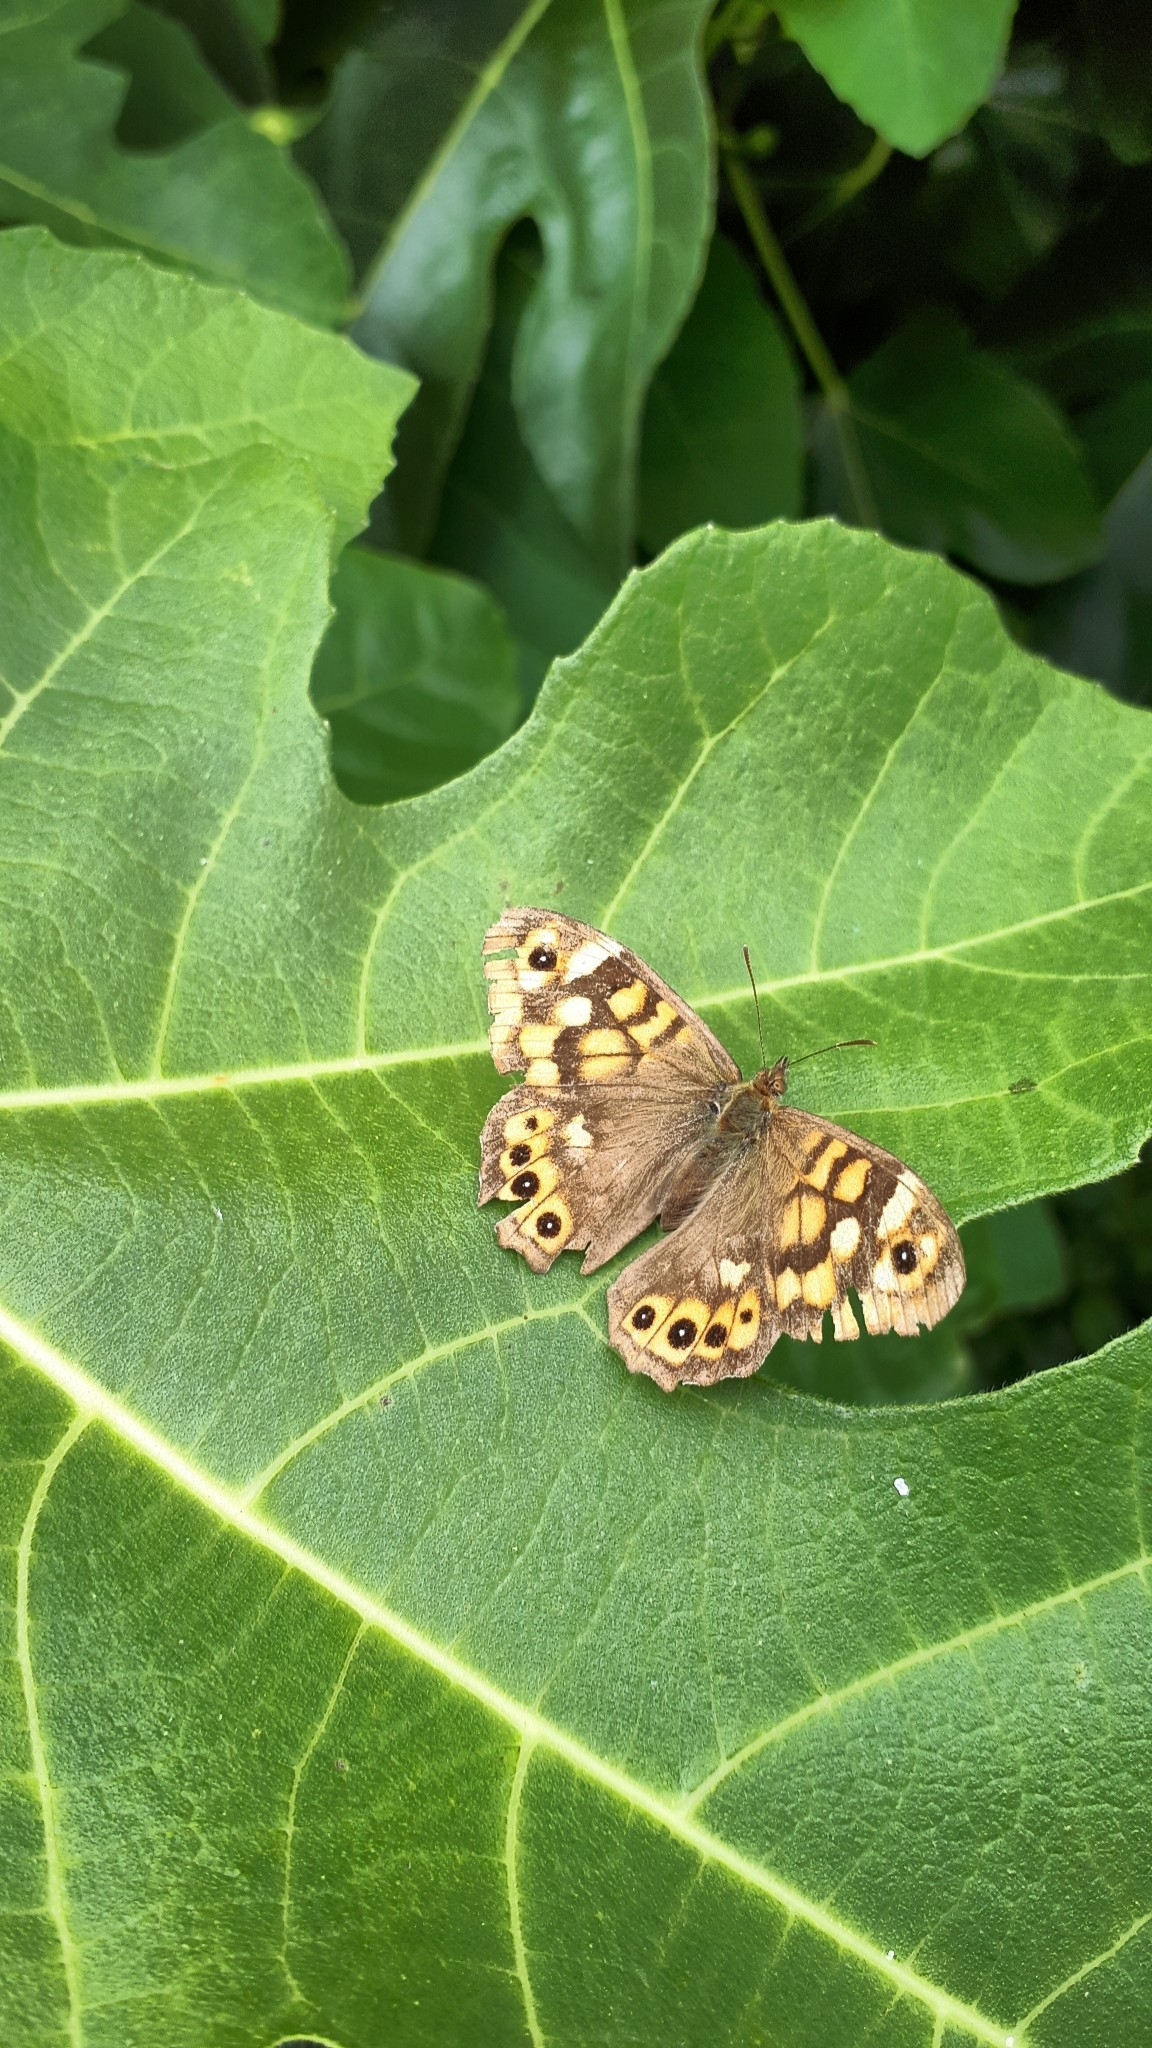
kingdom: Animalia
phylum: Arthropoda
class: Insecta
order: Lepidoptera
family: Nymphalidae
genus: Pararge
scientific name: Pararge aegeria
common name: Speckled wood
